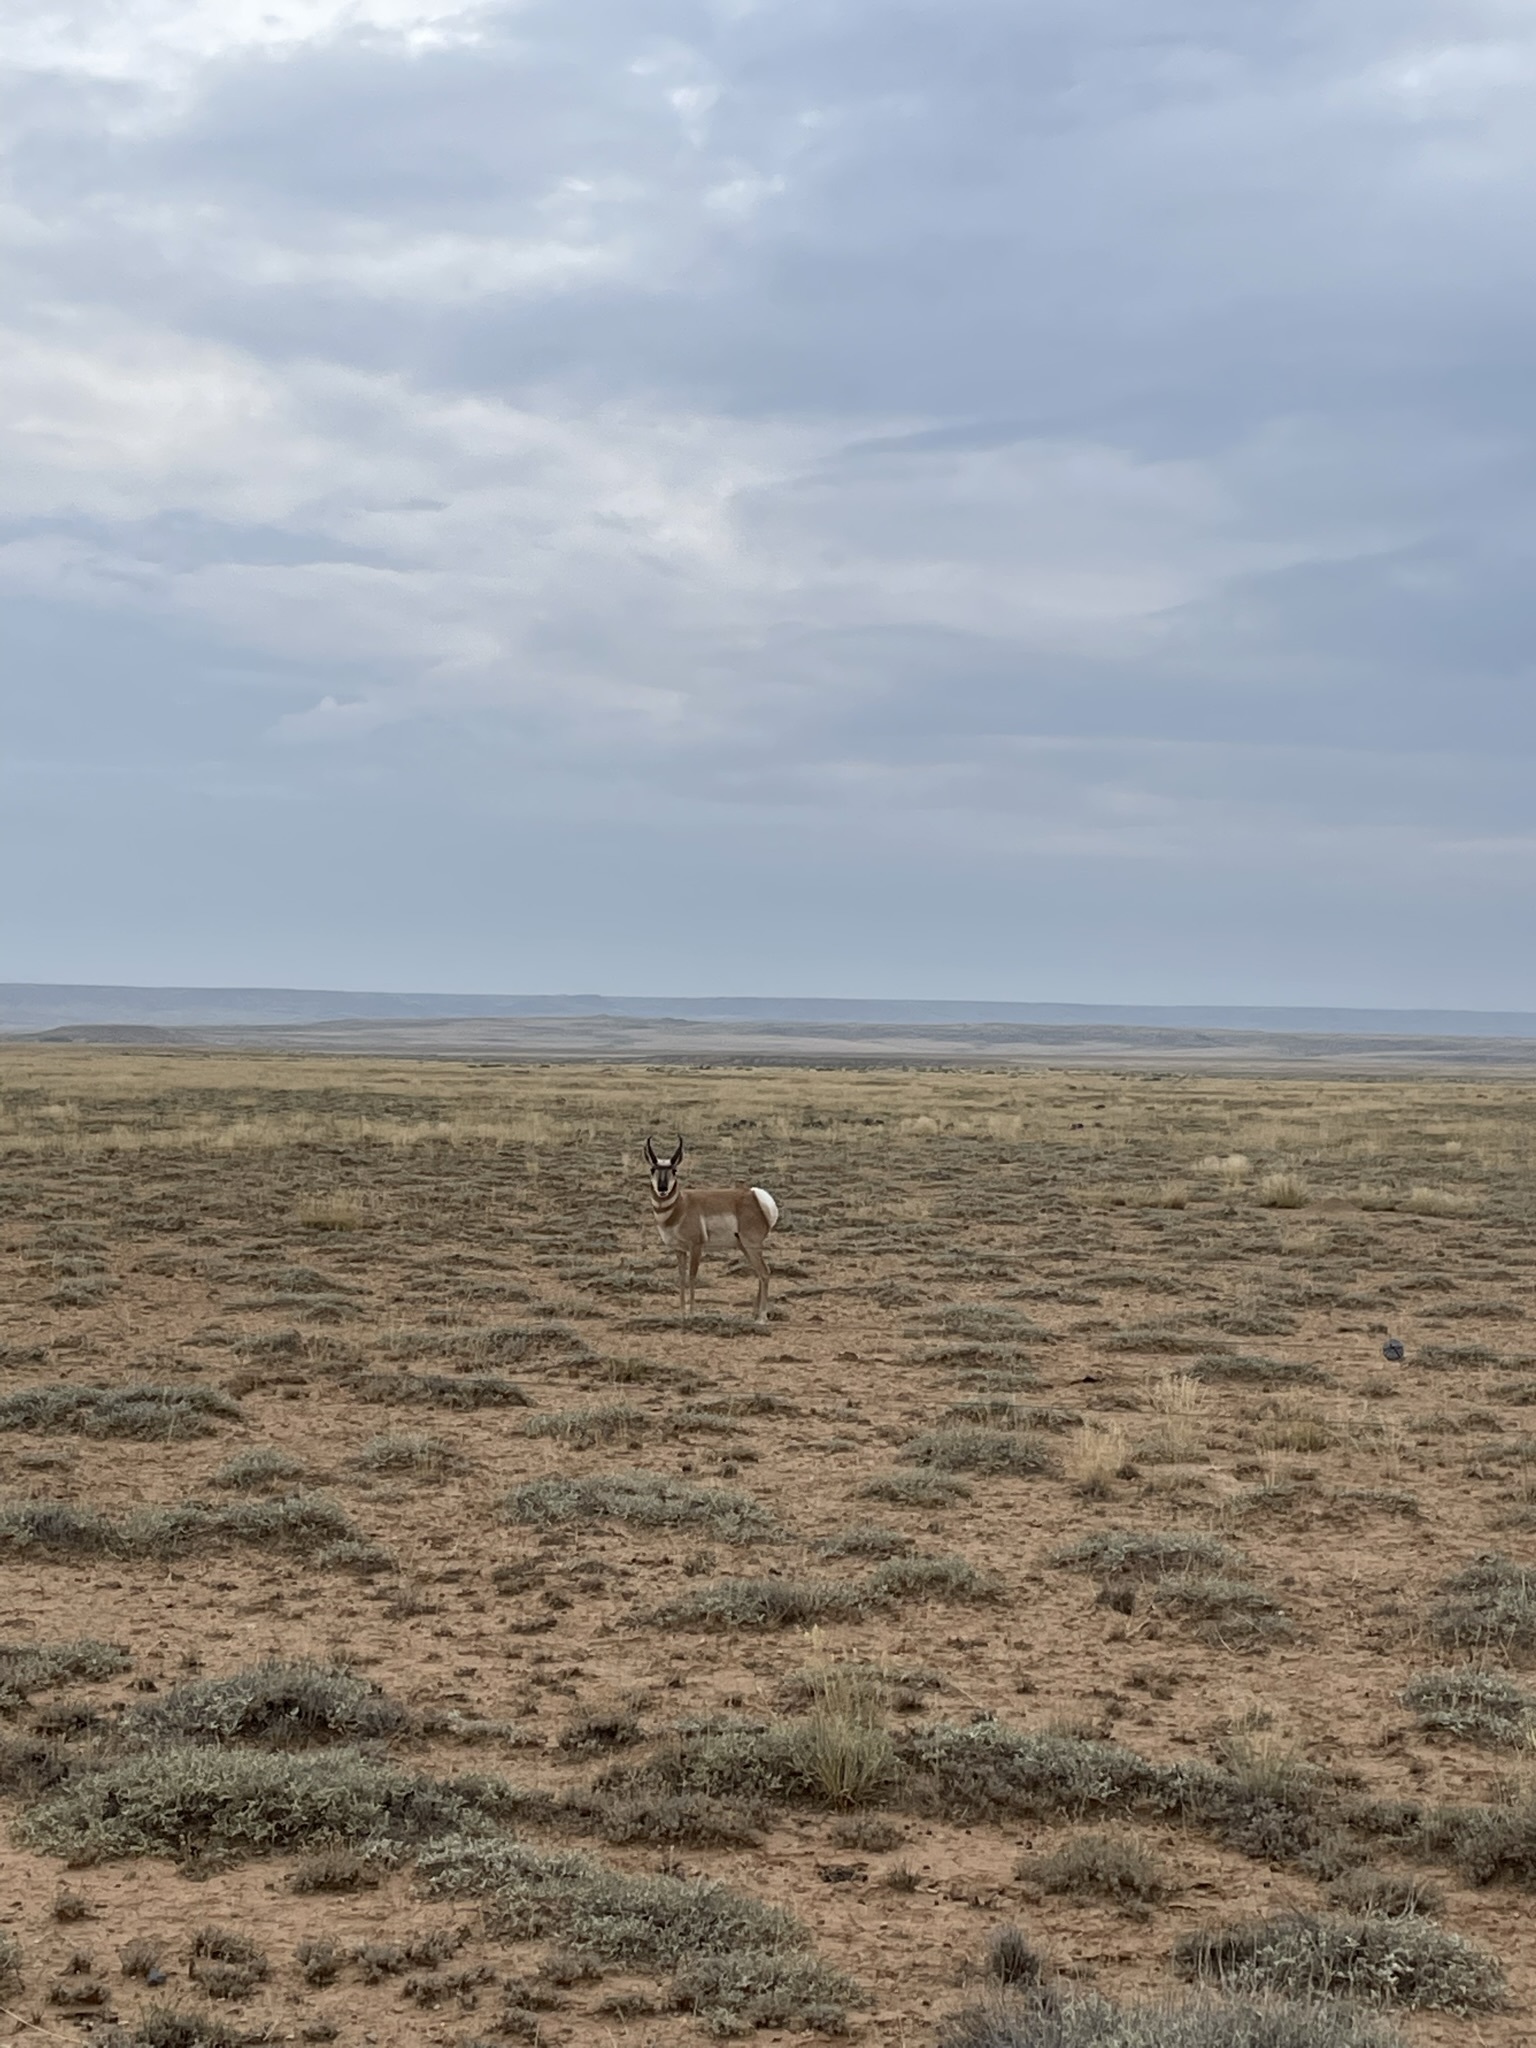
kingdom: Animalia
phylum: Chordata
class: Mammalia
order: Artiodactyla
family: Antilocapridae
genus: Antilocapra
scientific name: Antilocapra americana
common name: Pronghorn
